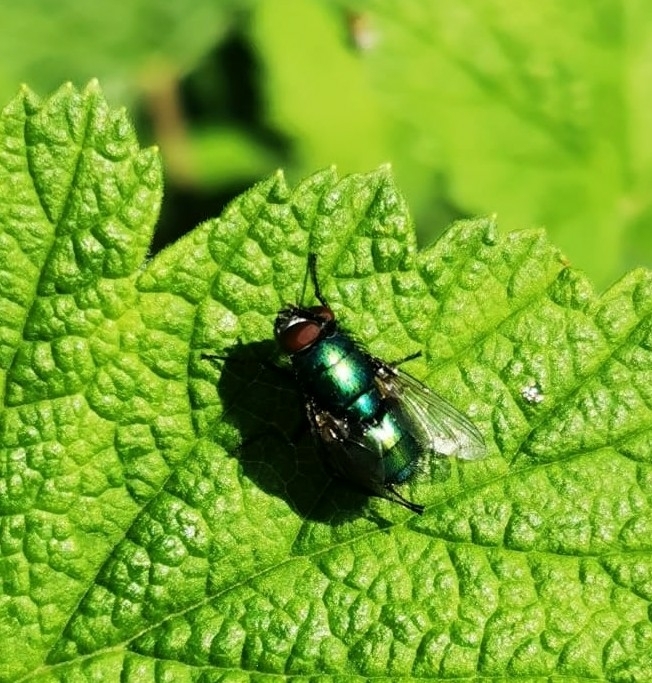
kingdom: Animalia
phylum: Arthropoda
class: Insecta
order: Diptera
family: Calliphoridae
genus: Lucilia
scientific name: Lucilia
